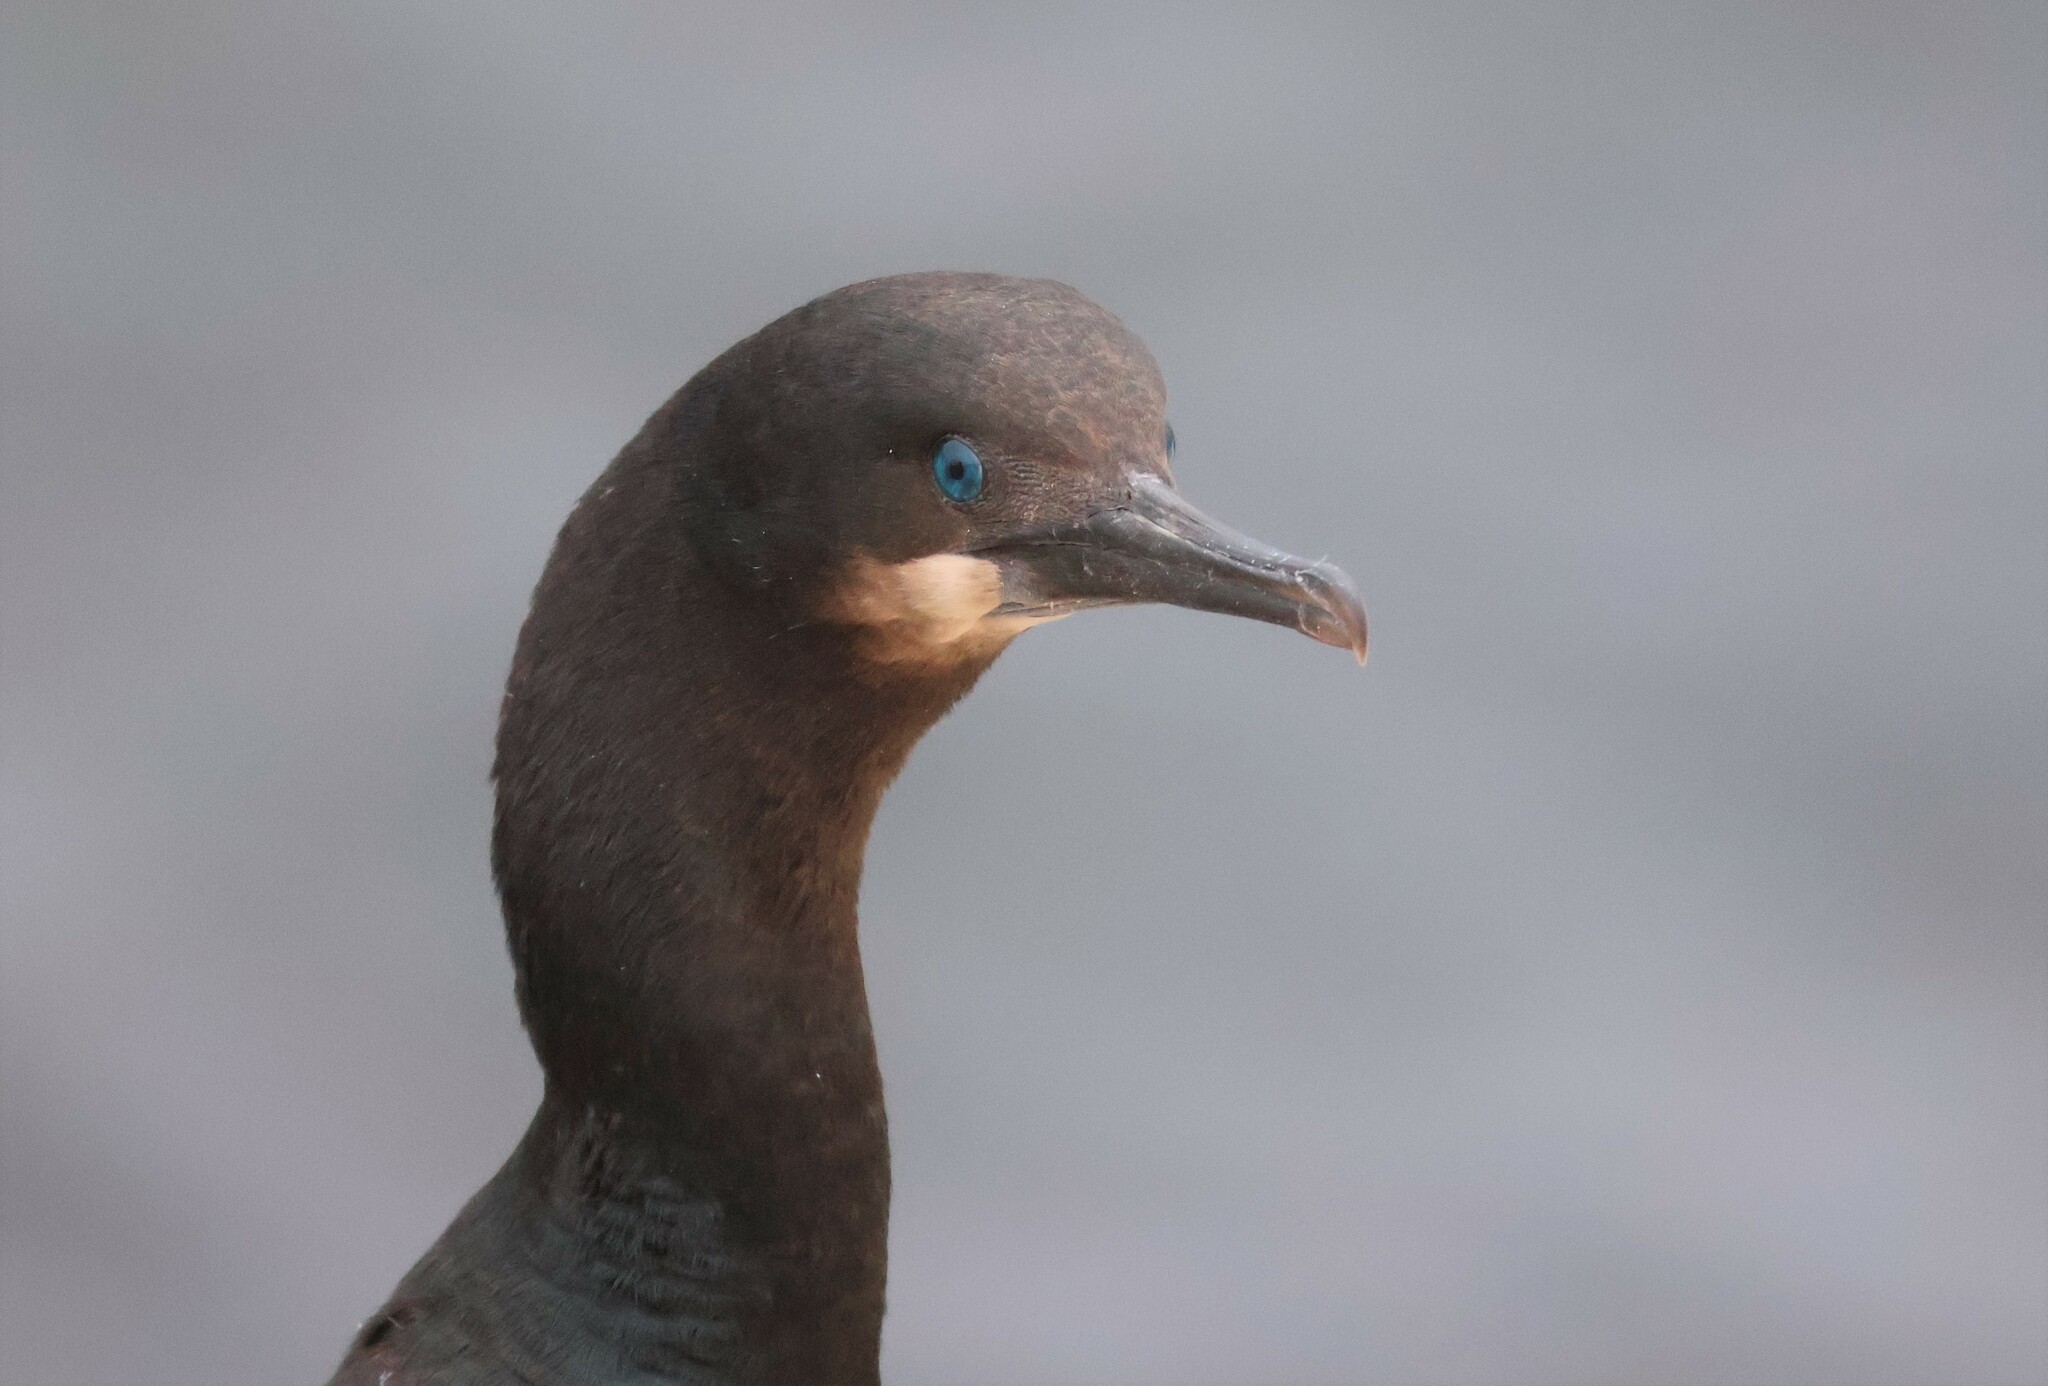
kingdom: Animalia
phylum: Chordata
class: Aves
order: Suliformes
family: Phalacrocoracidae
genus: Urile
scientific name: Urile penicillatus
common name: Brandt's cormorant
